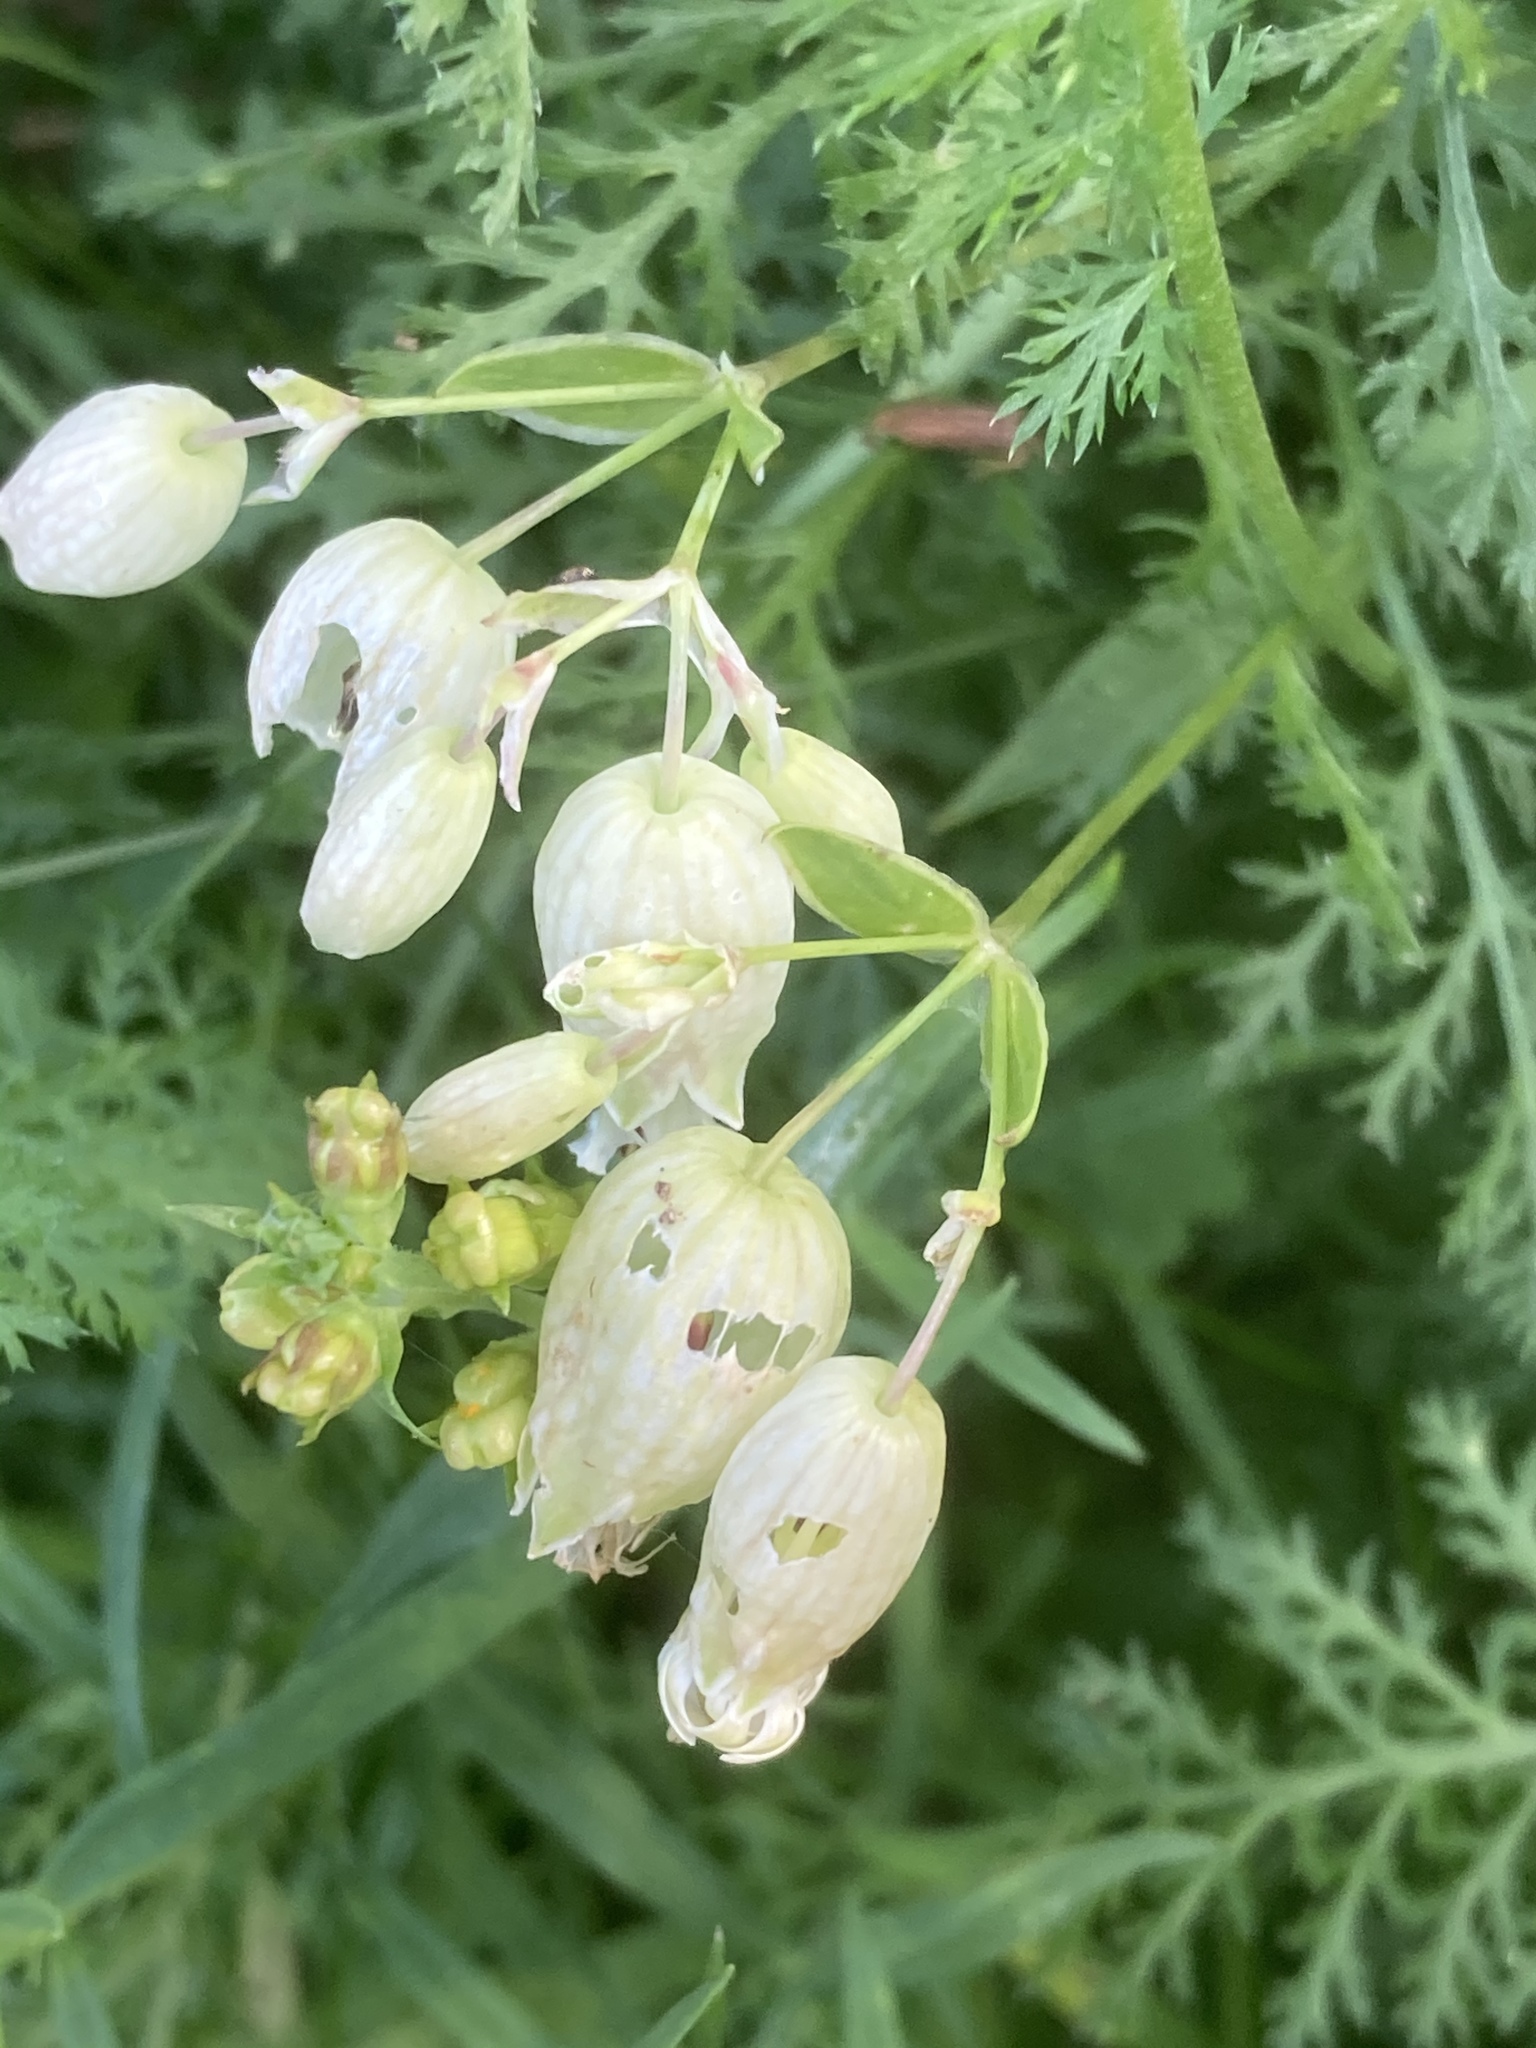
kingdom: Plantae
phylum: Tracheophyta
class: Magnoliopsida
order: Caryophyllales
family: Caryophyllaceae
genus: Silene
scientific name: Silene vulgaris
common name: Bladder campion
